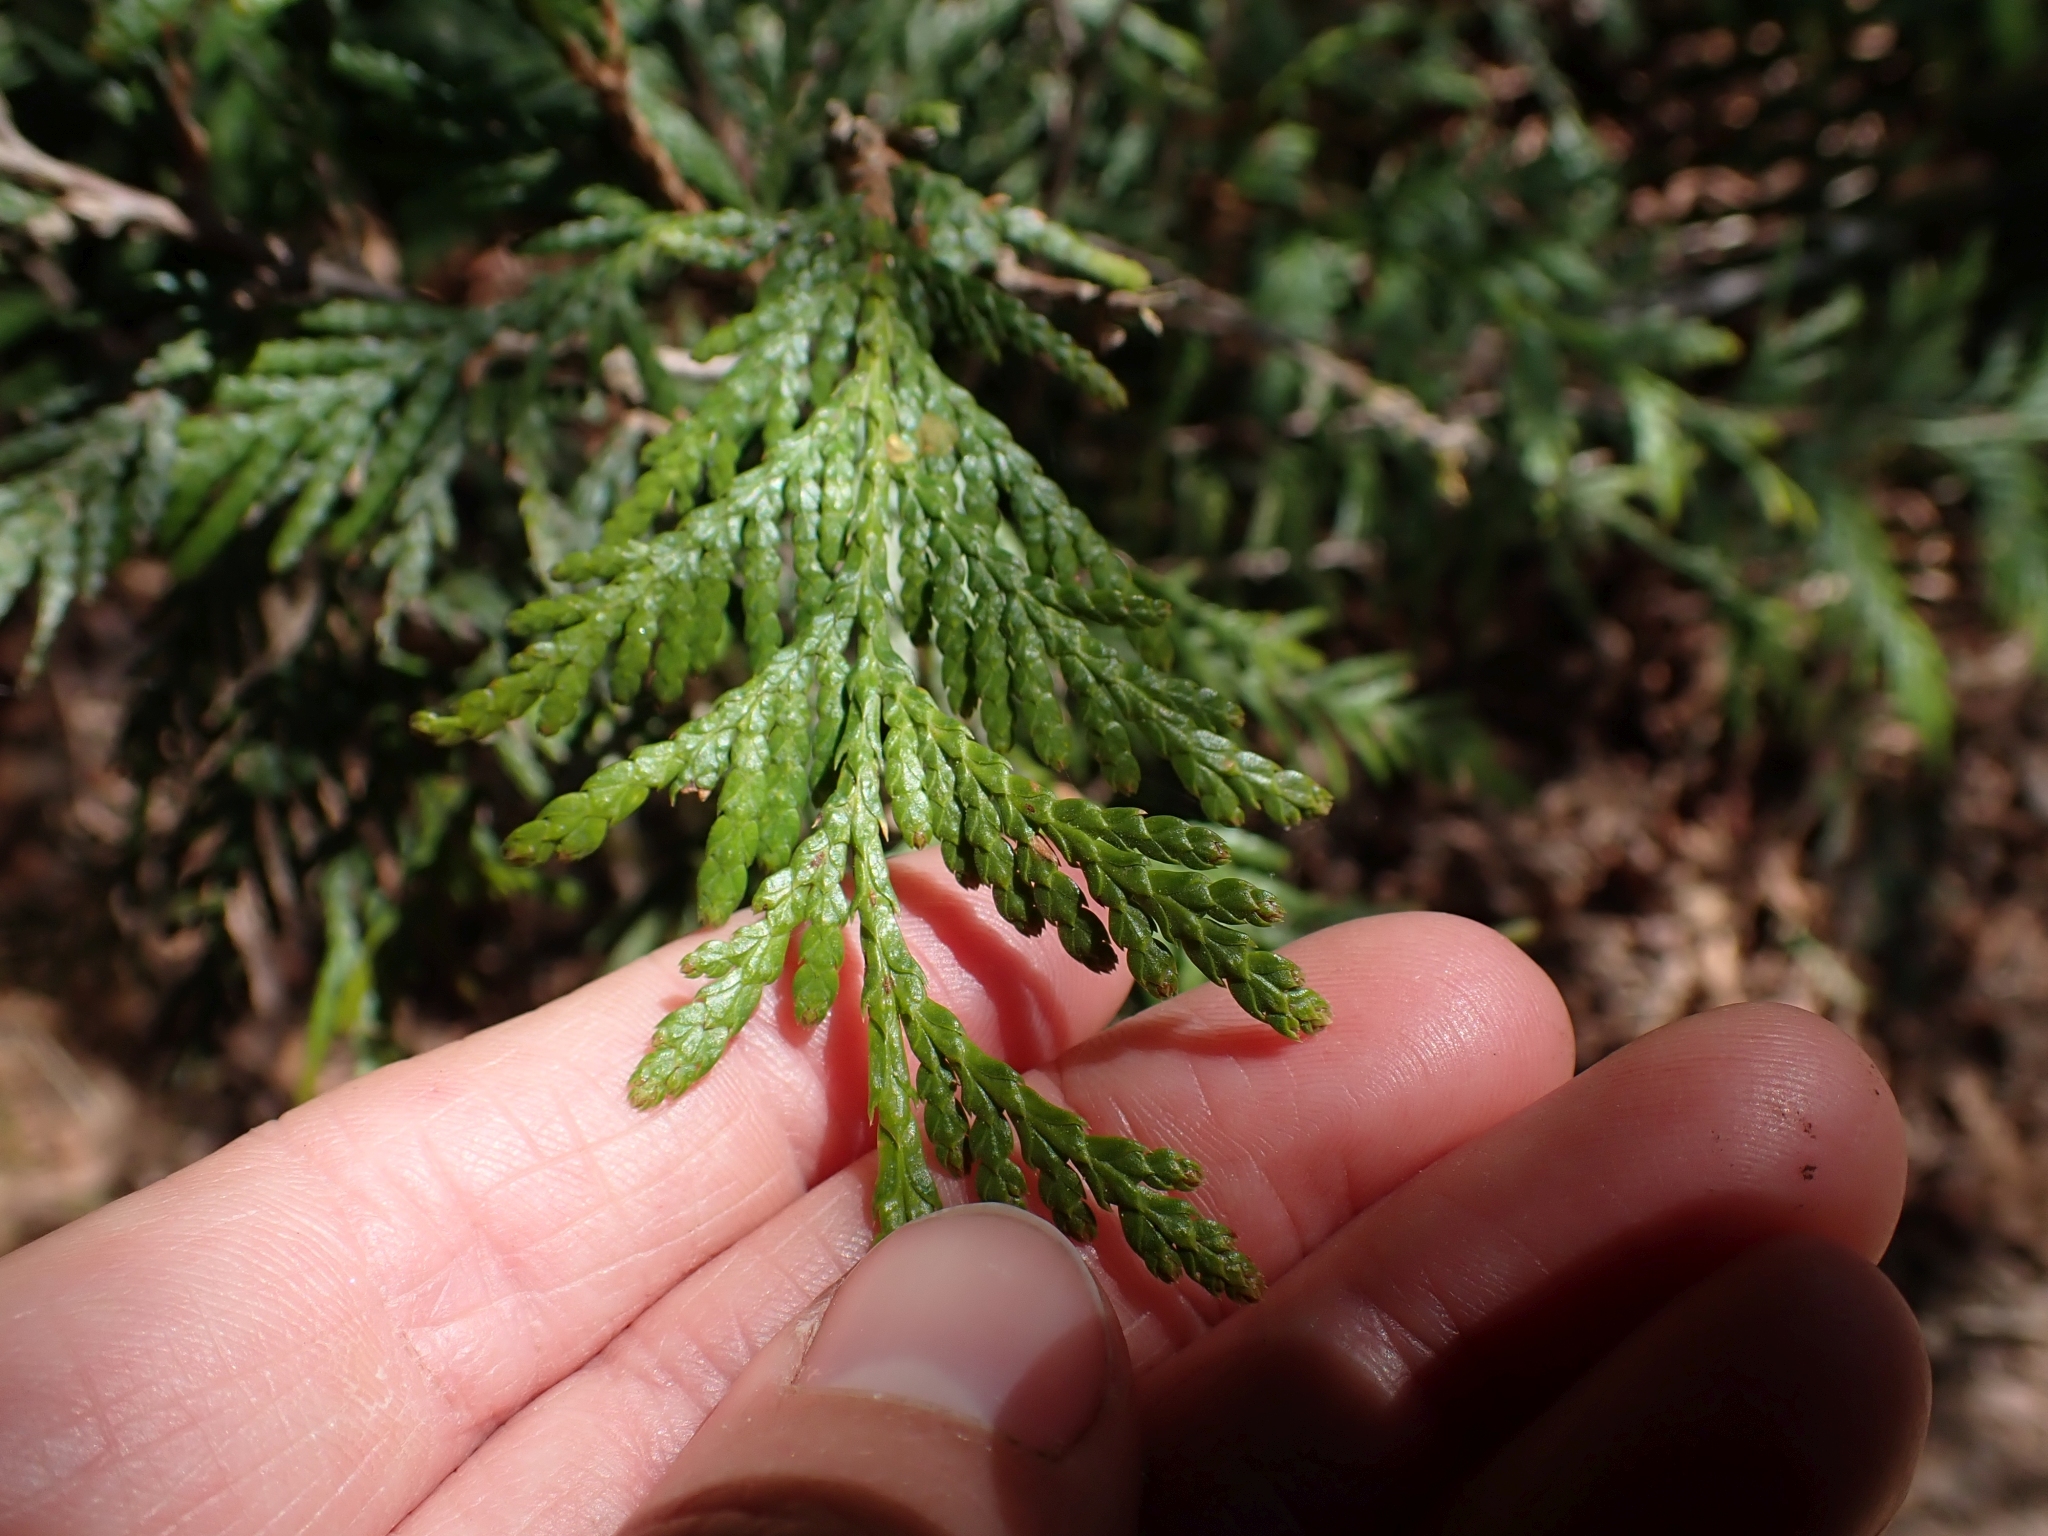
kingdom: Plantae
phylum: Tracheophyta
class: Pinopsida
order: Pinales
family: Cupressaceae
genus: Thuja
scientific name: Thuja plicata
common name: Western red-cedar
